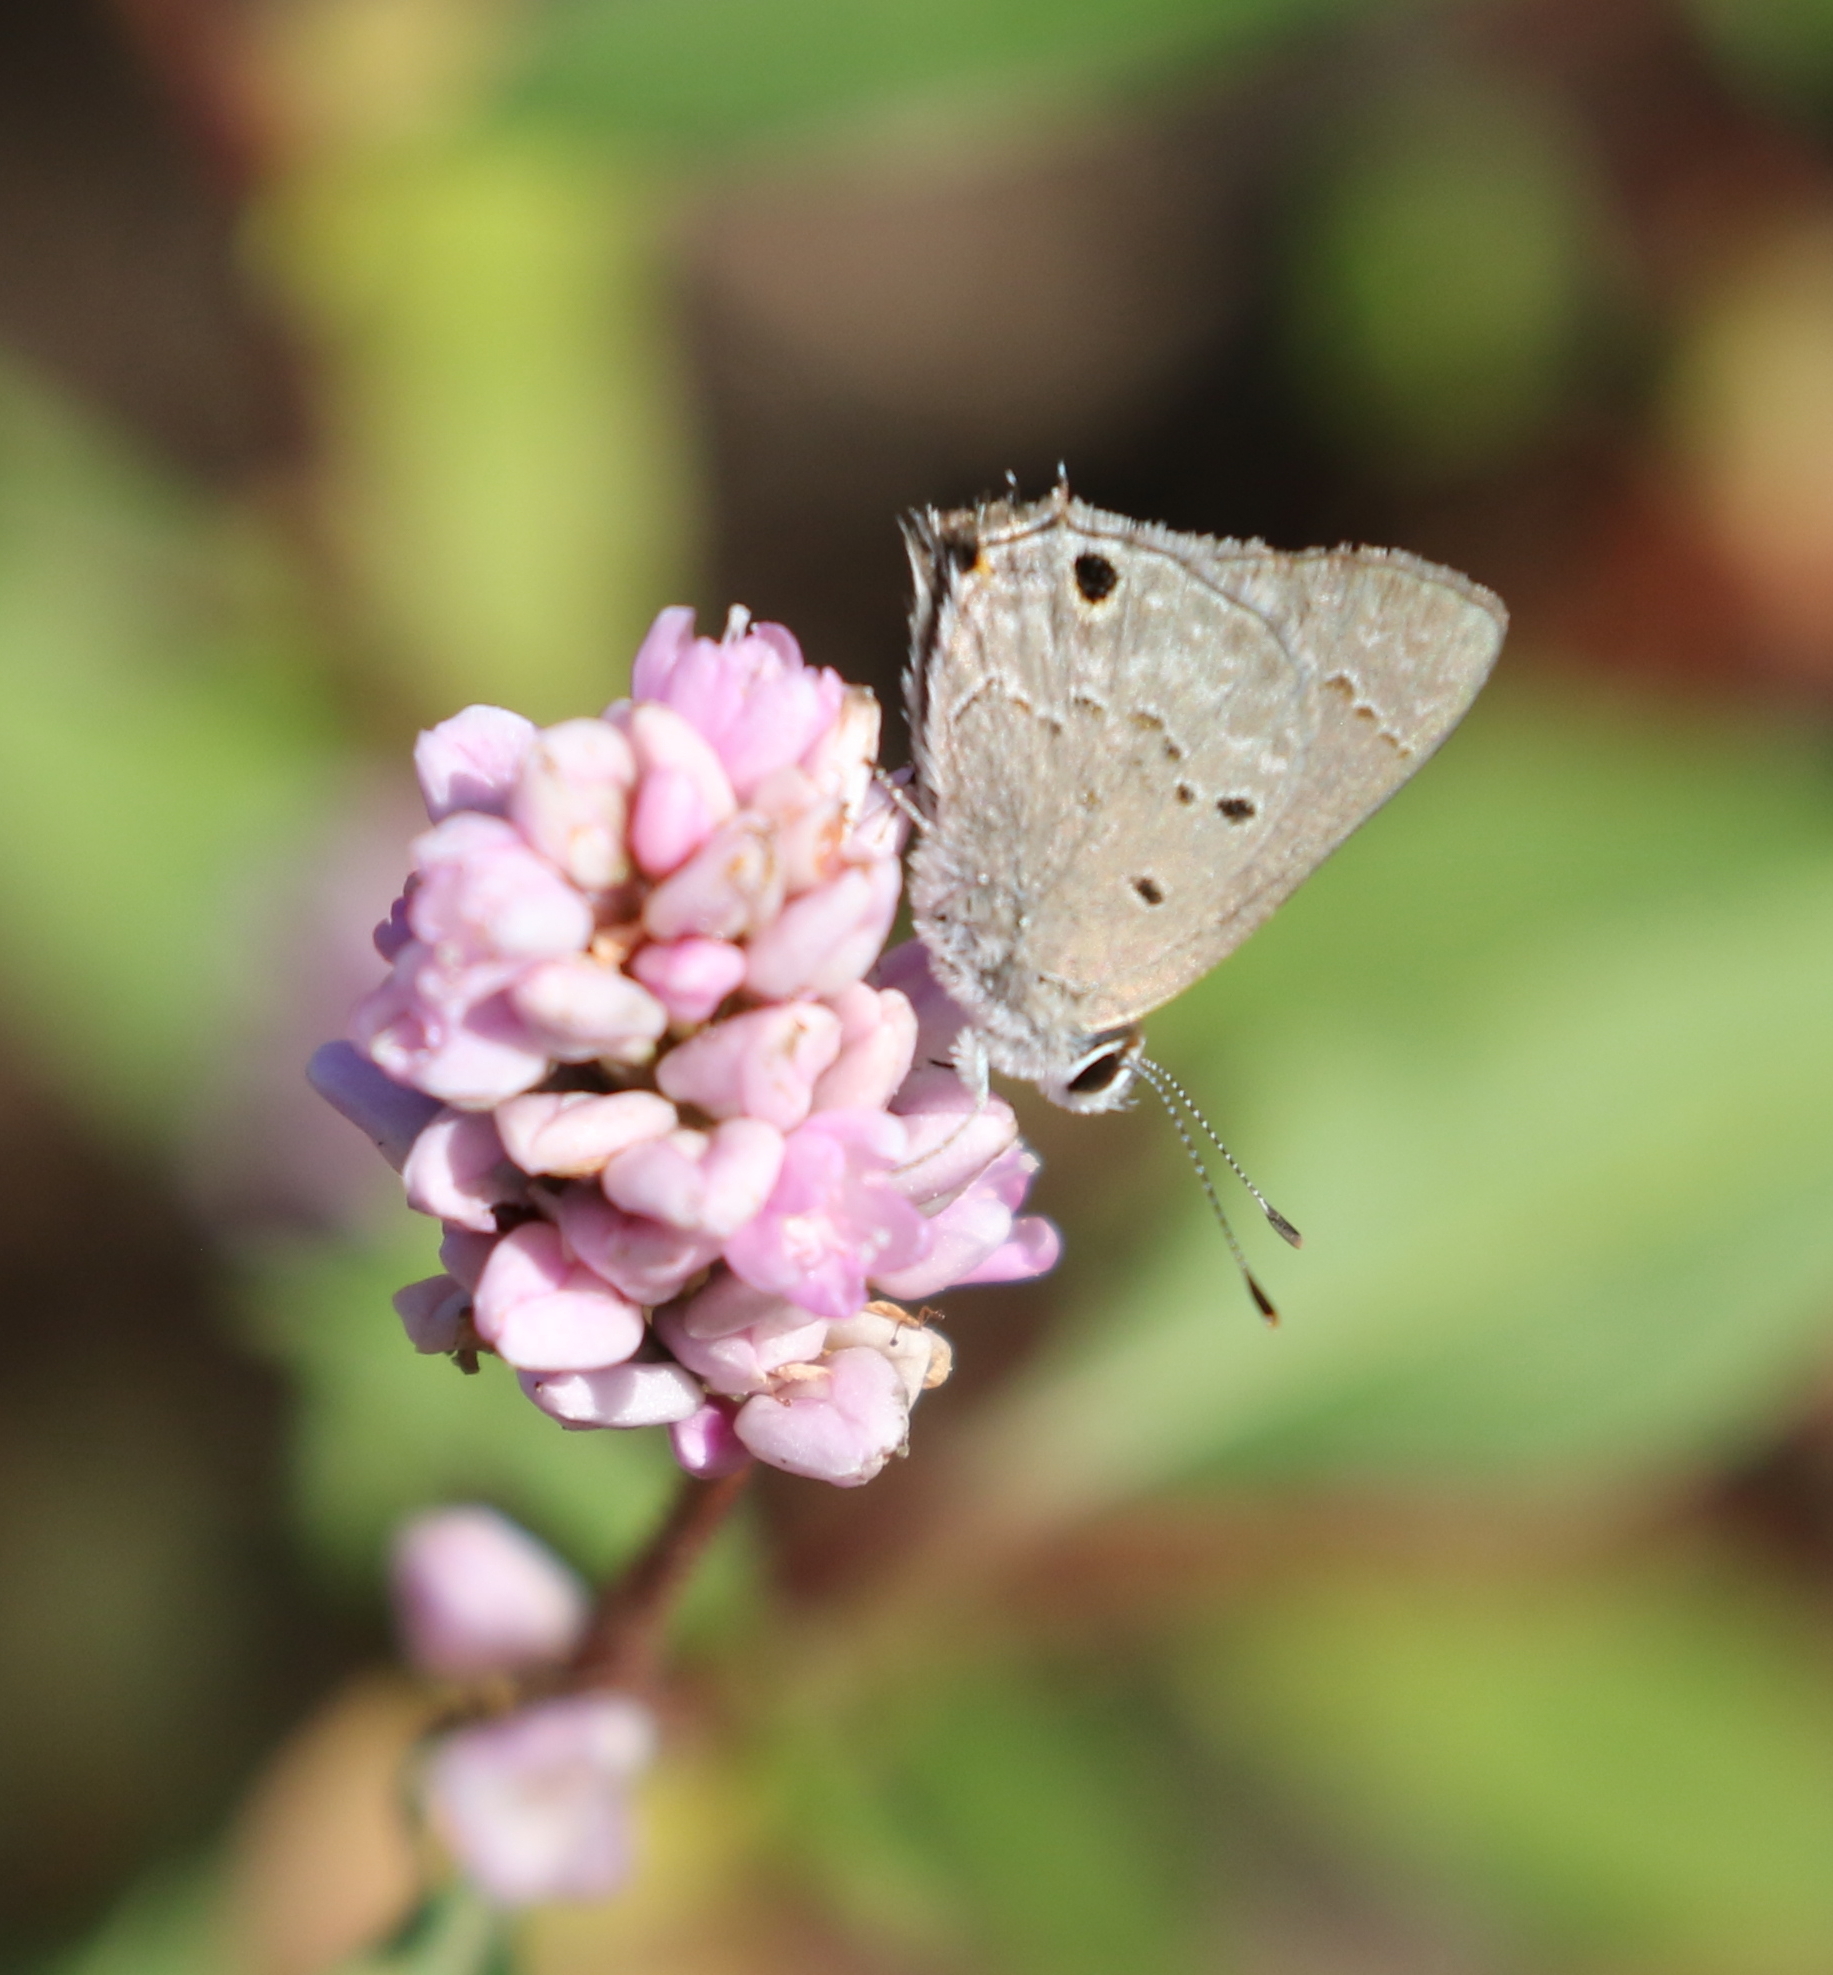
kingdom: Animalia
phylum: Arthropoda
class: Insecta
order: Lepidoptera
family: Lycaenidae
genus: Callicista
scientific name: Callicista columella
